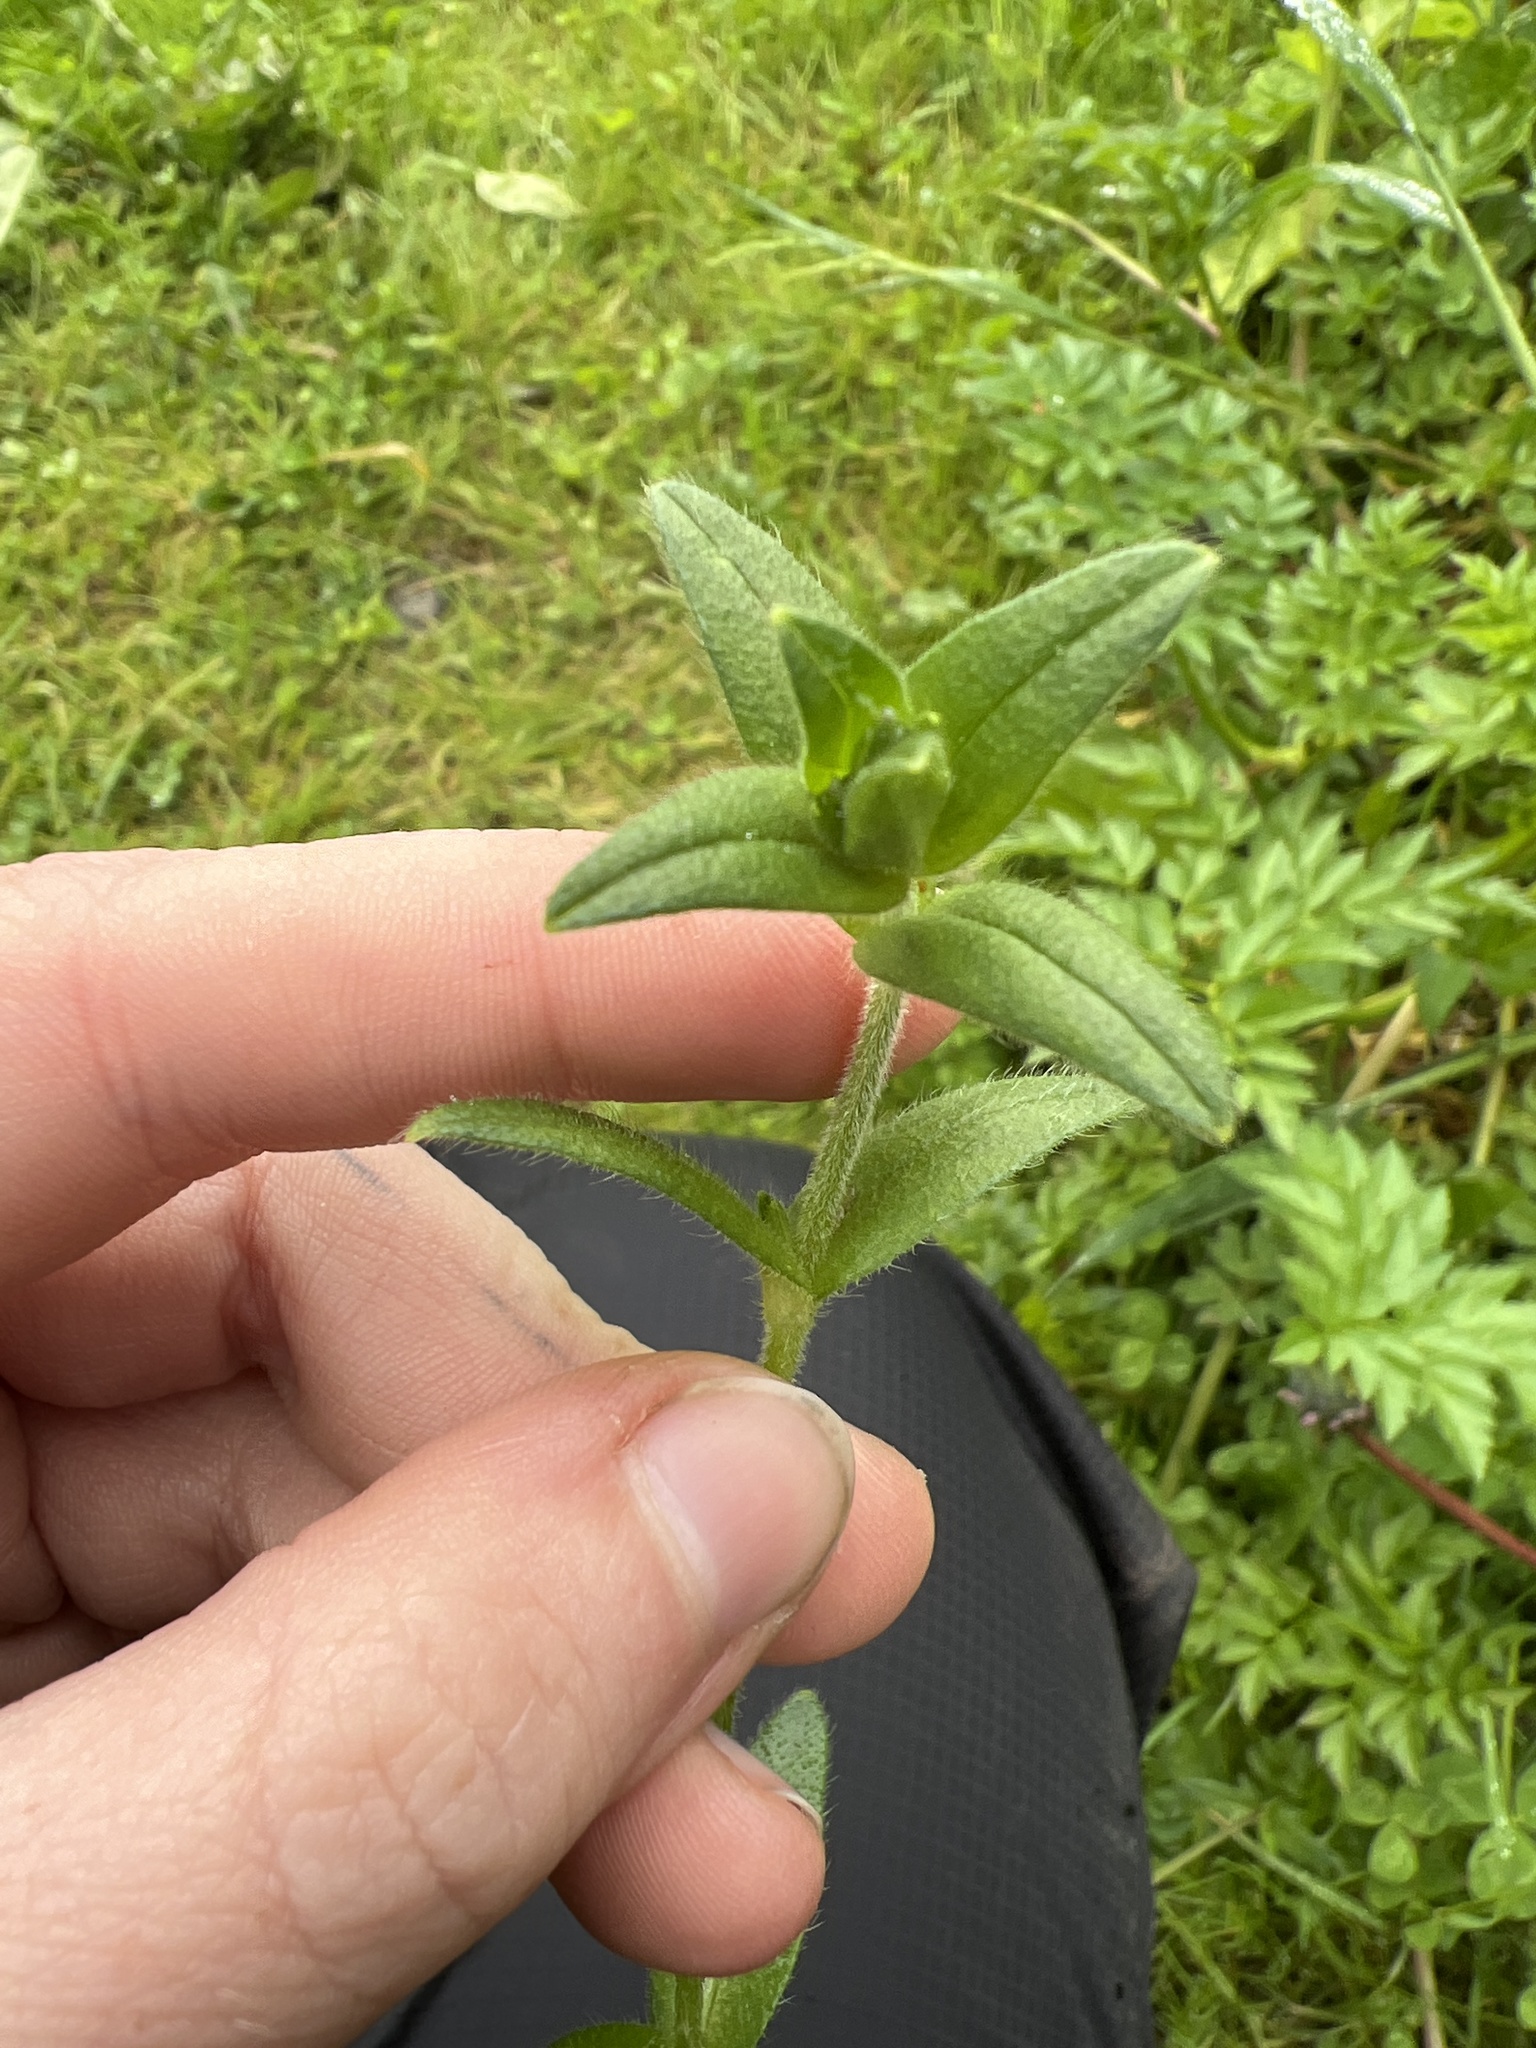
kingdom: Plantae
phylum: Tracheophyta
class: Magnoliopsida
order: Caryophyllales
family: Caryophyllaceae
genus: Cerastium
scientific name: Cerastium fontanum
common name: Common mouse-ear
